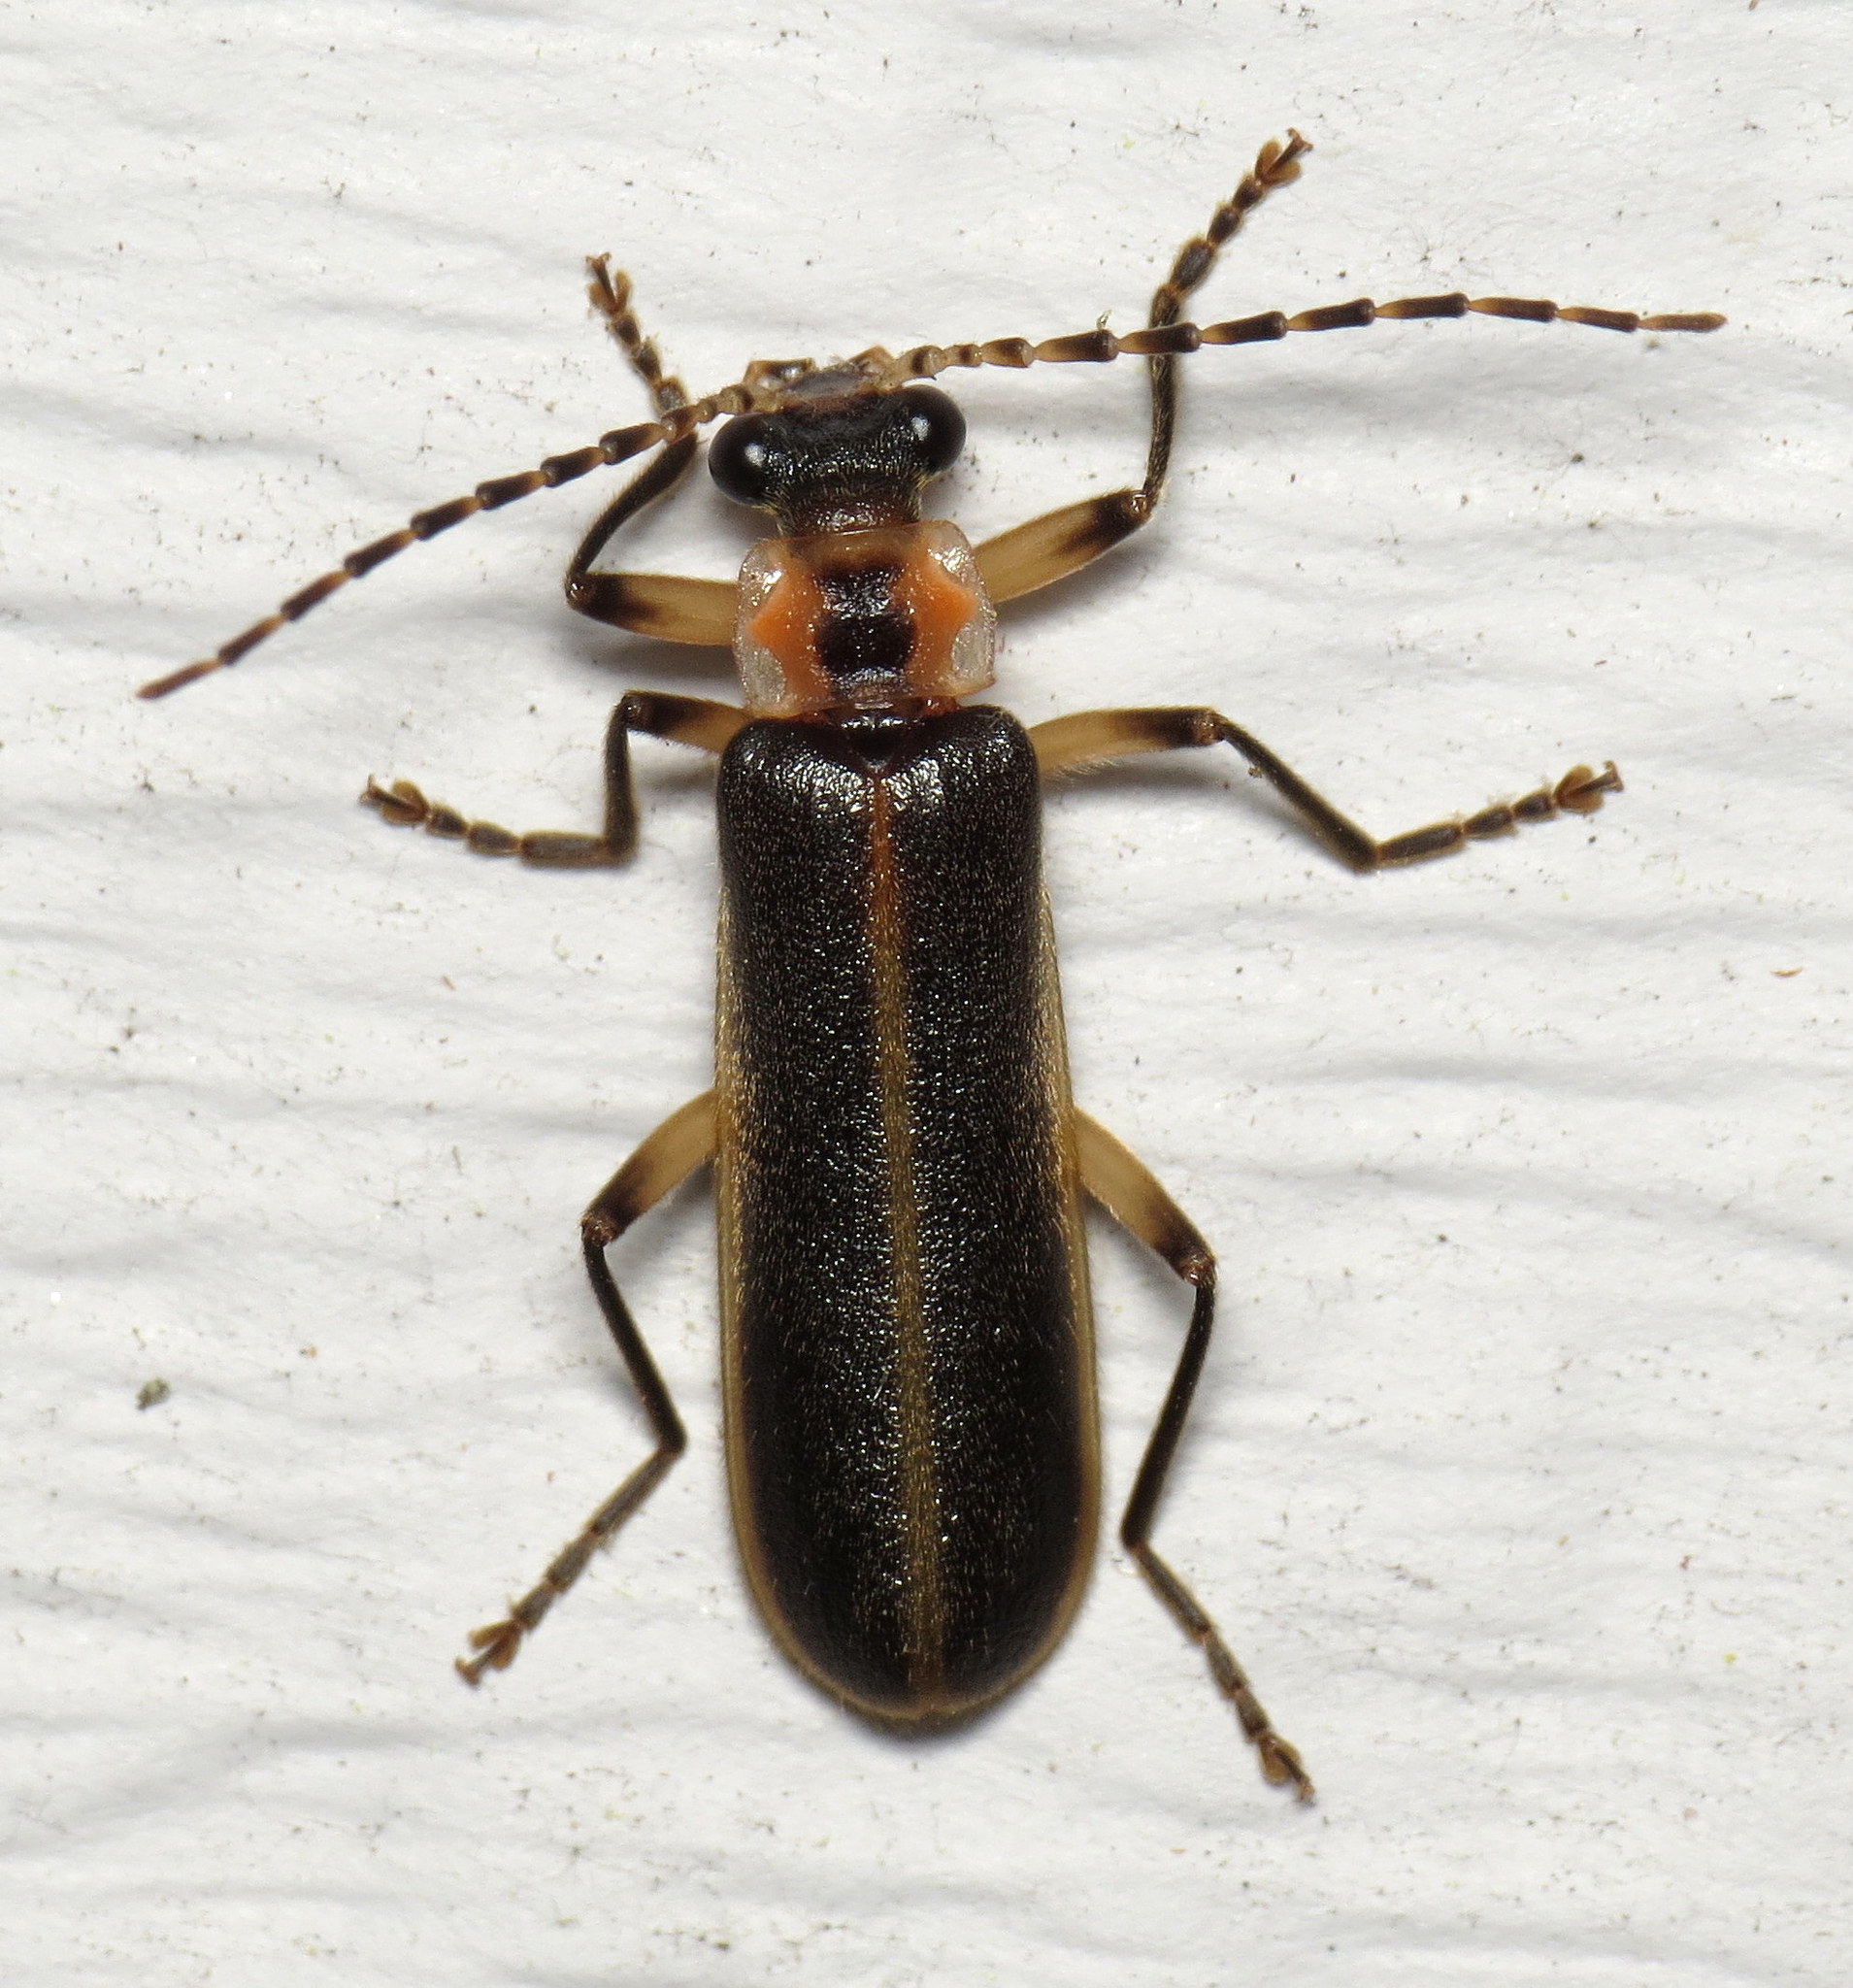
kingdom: Animalia
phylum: Arthropoda
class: Insecta
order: Coleoptera
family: Cantharidae
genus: Podabrus
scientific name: Podabrus basilaris
